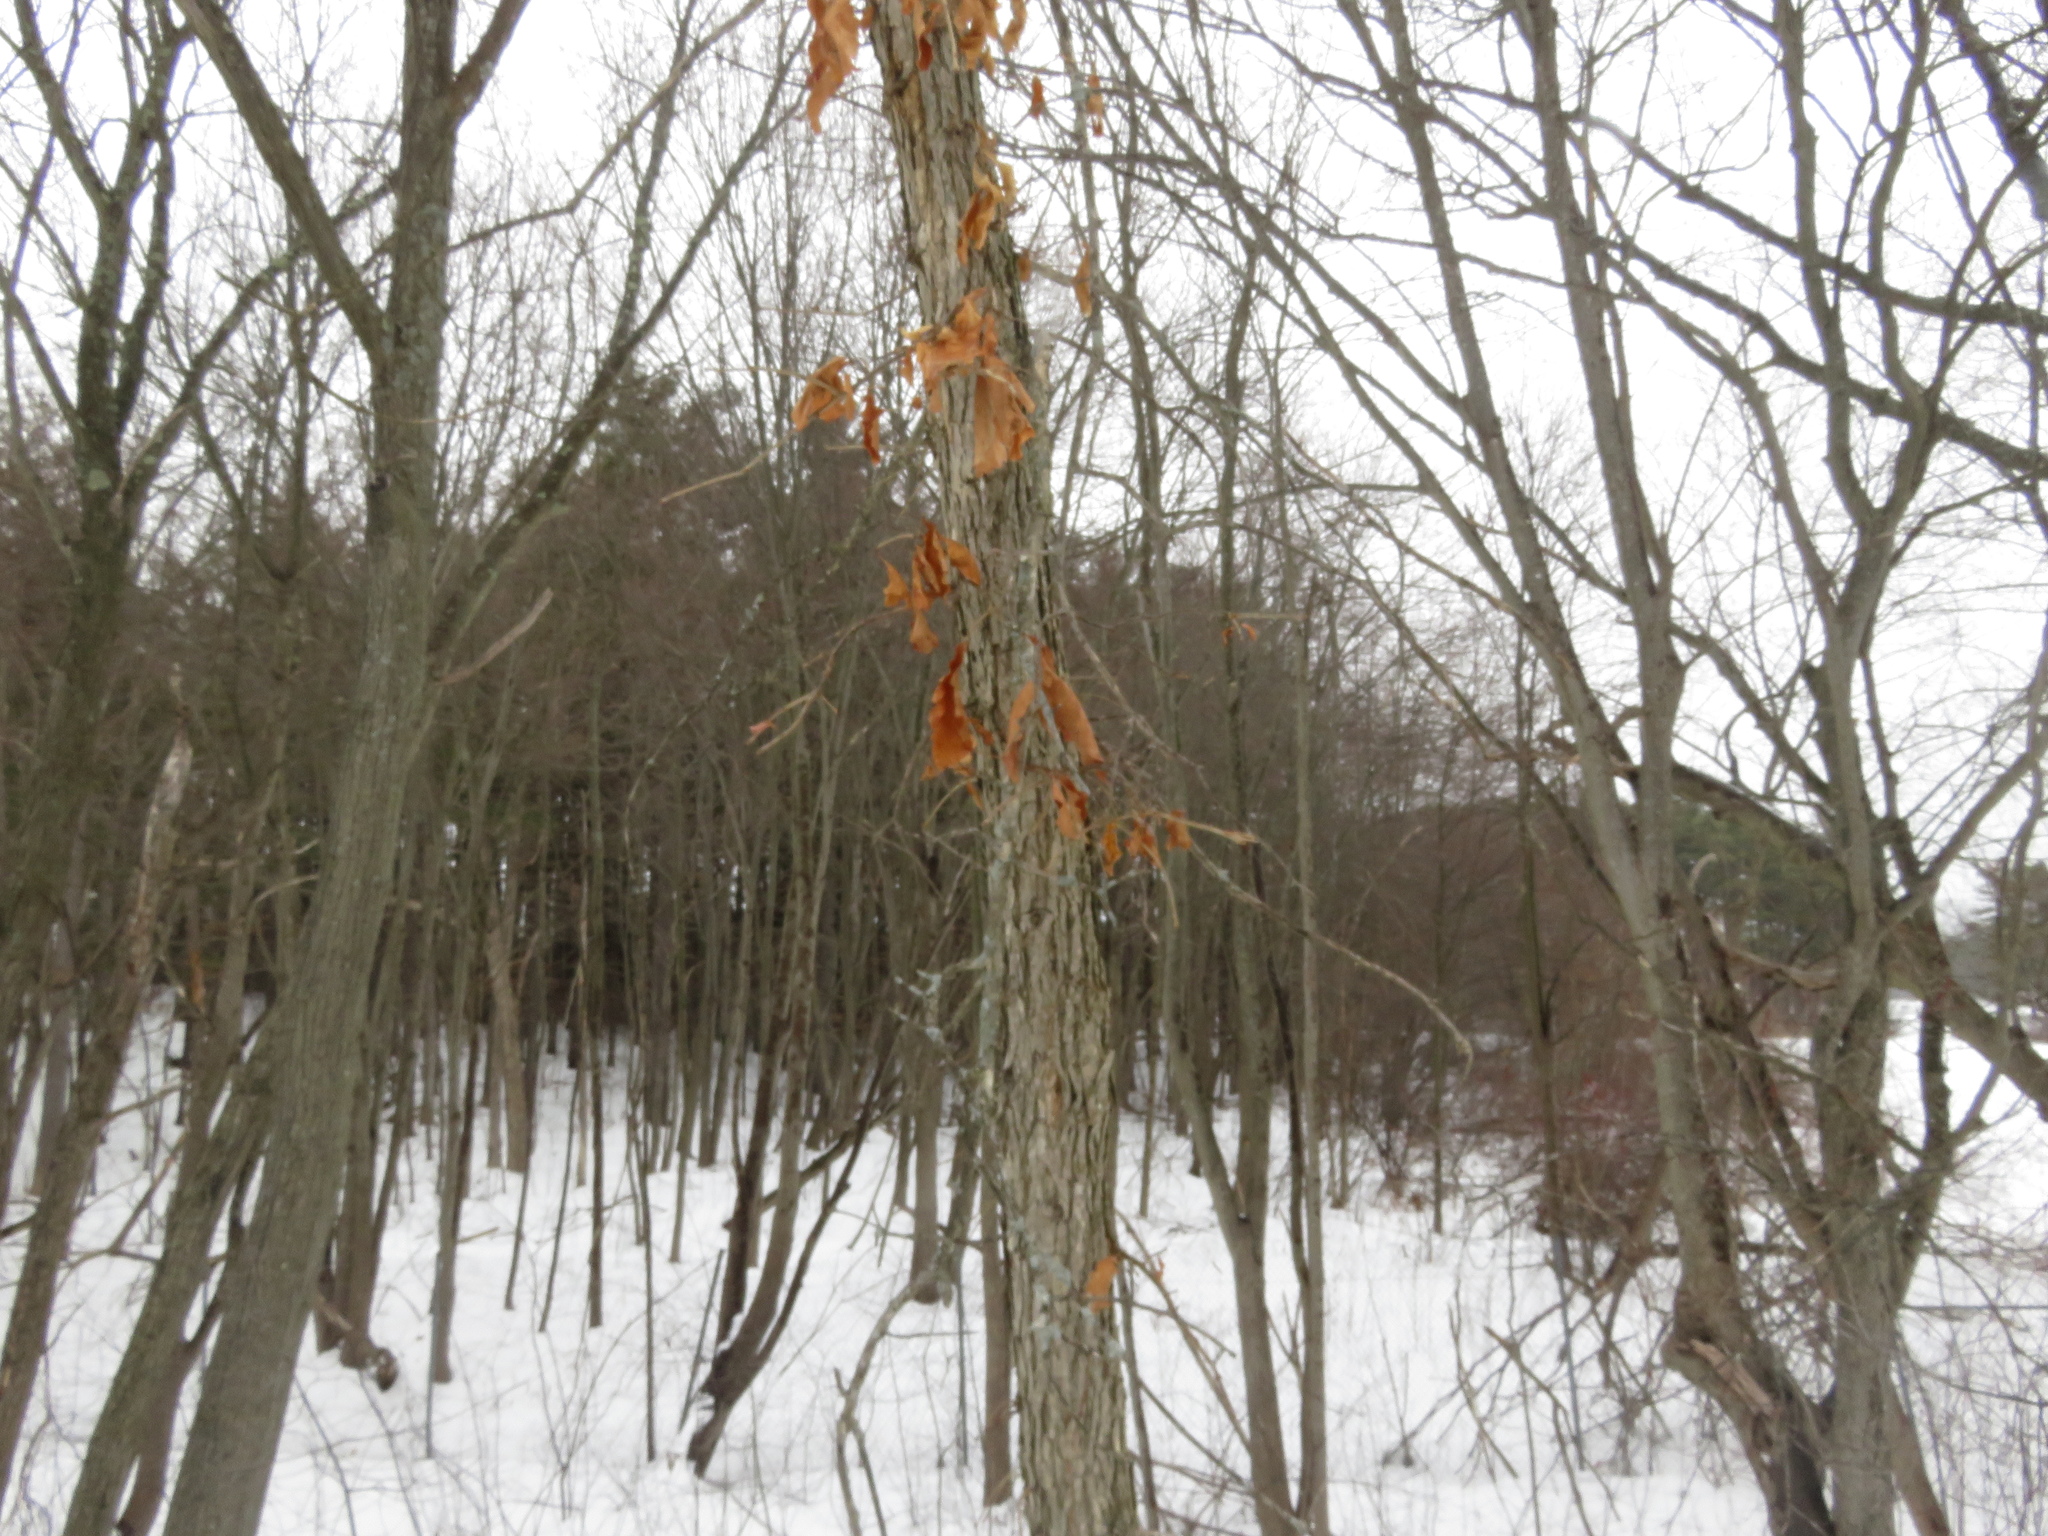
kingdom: Plantae
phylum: Tracheophyta
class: Magnoliopsida
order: Fagales
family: Fagaceae
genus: Quercus
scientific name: Quercus bicolor
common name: Swamp white oak
